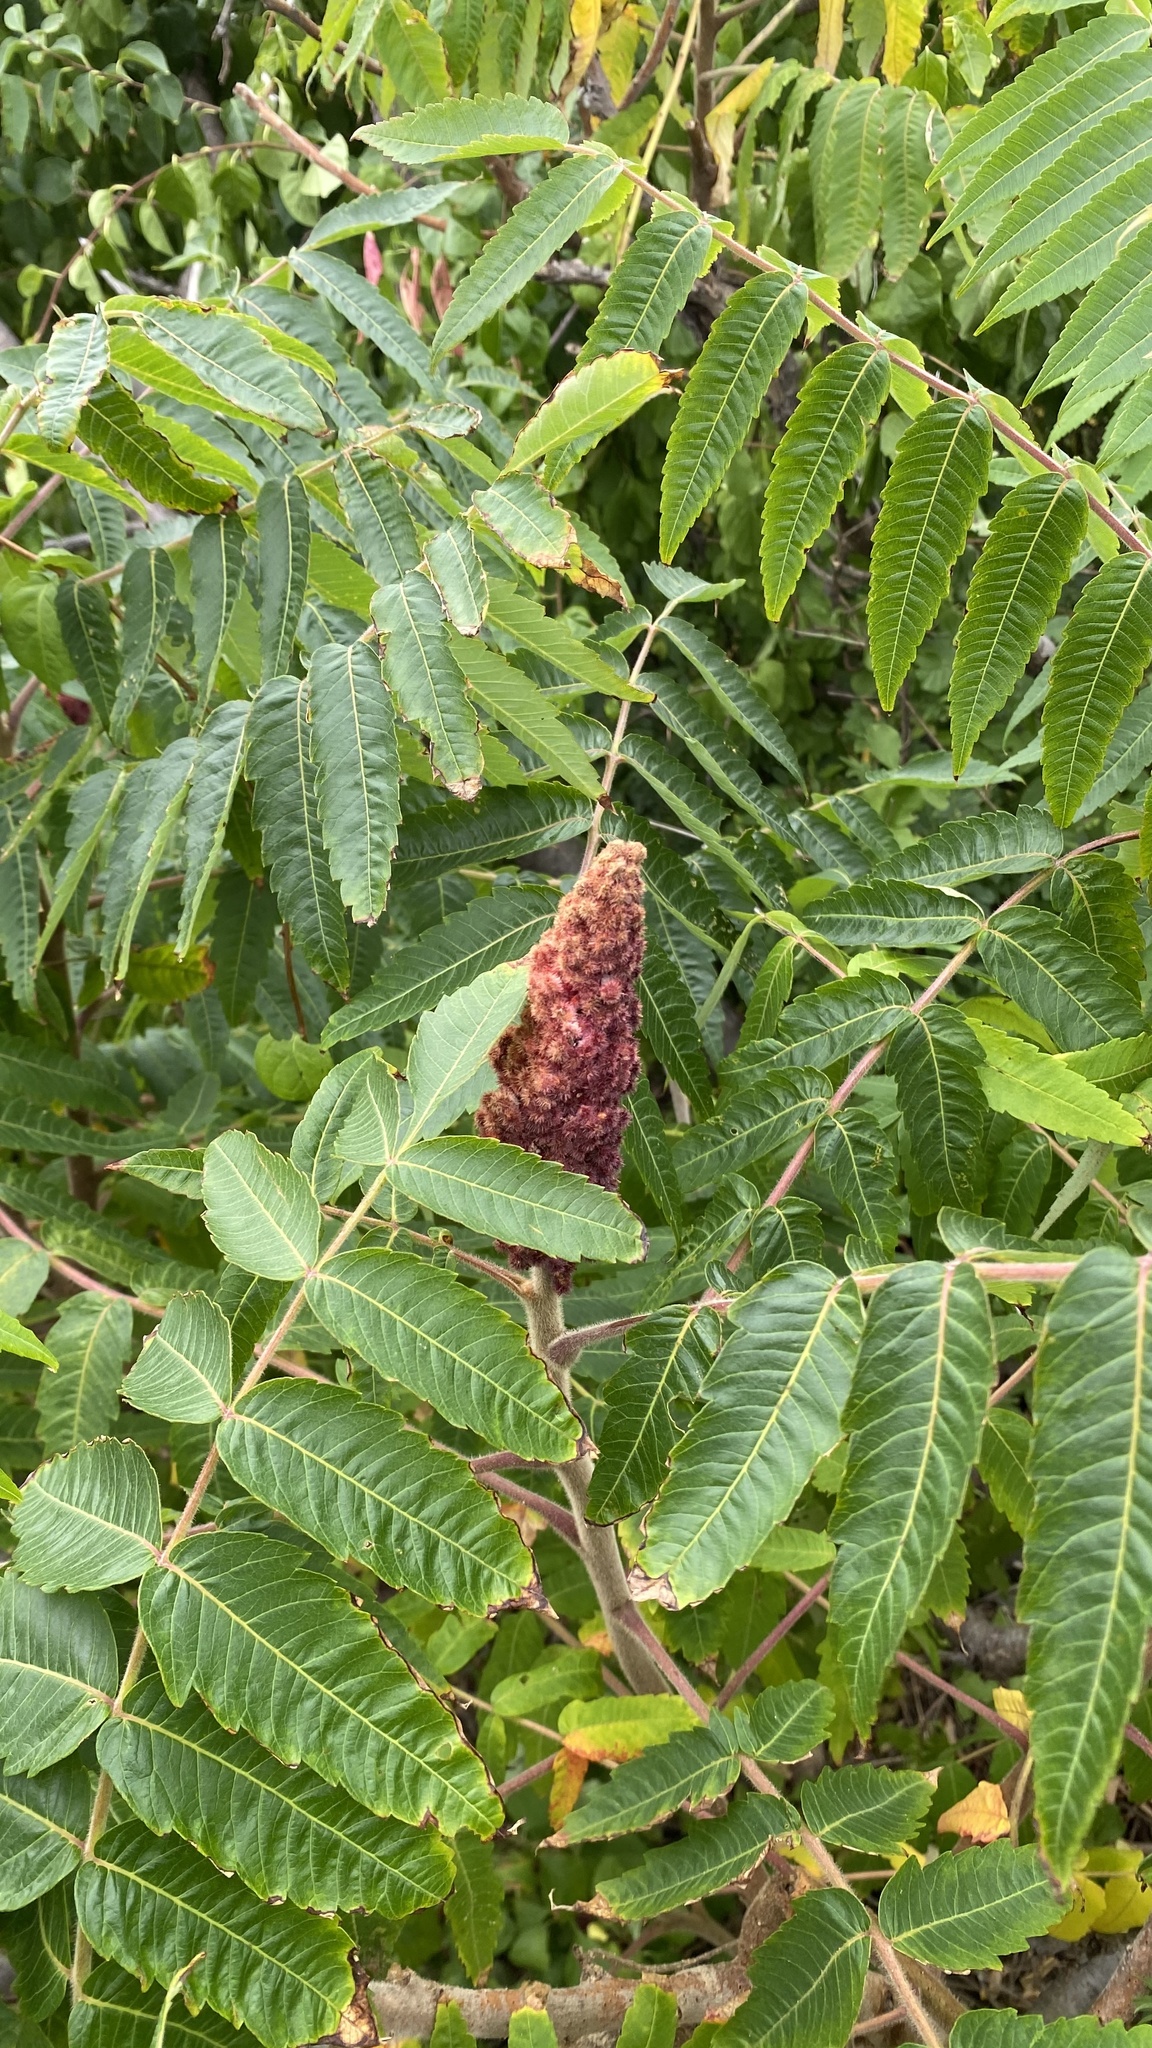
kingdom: Plantae
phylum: Tracheophyta
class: Magnoliopsida
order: Sapindales
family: Anacardiaceae
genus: Rhus
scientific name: Rhus typhina
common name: Staghorn sumac
